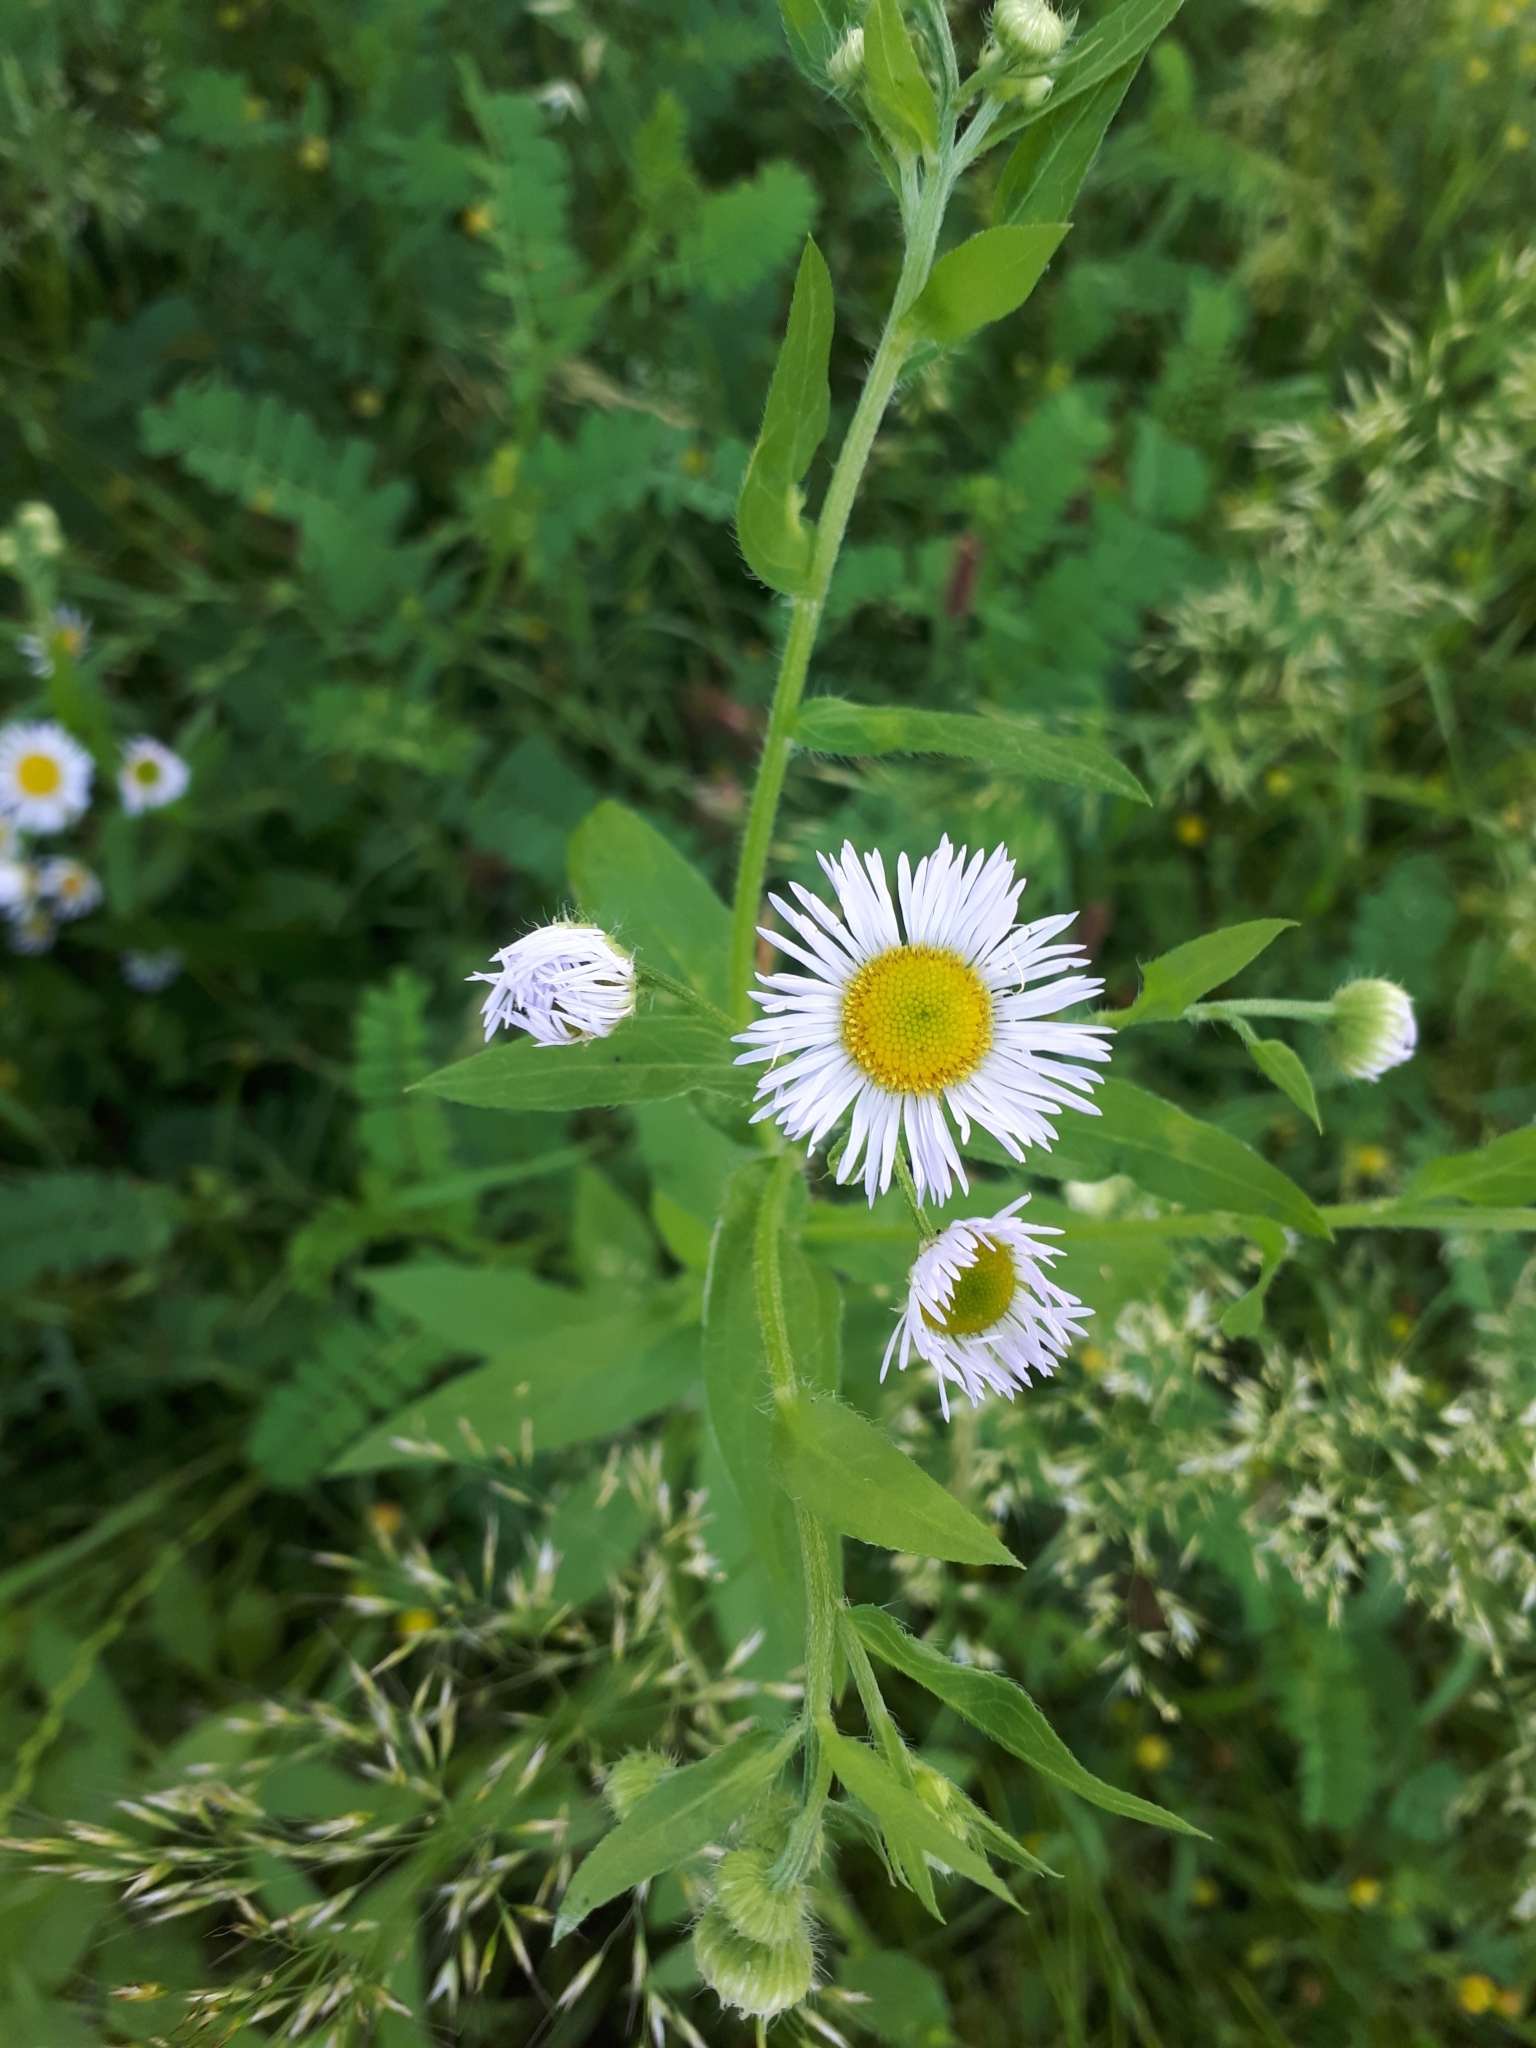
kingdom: Plantae
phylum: Tracheophyta
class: Magnoliopsida
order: Asterales
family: Asteraceae
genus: Erigeron
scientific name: Erigeron annuus
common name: Tall fleabane
